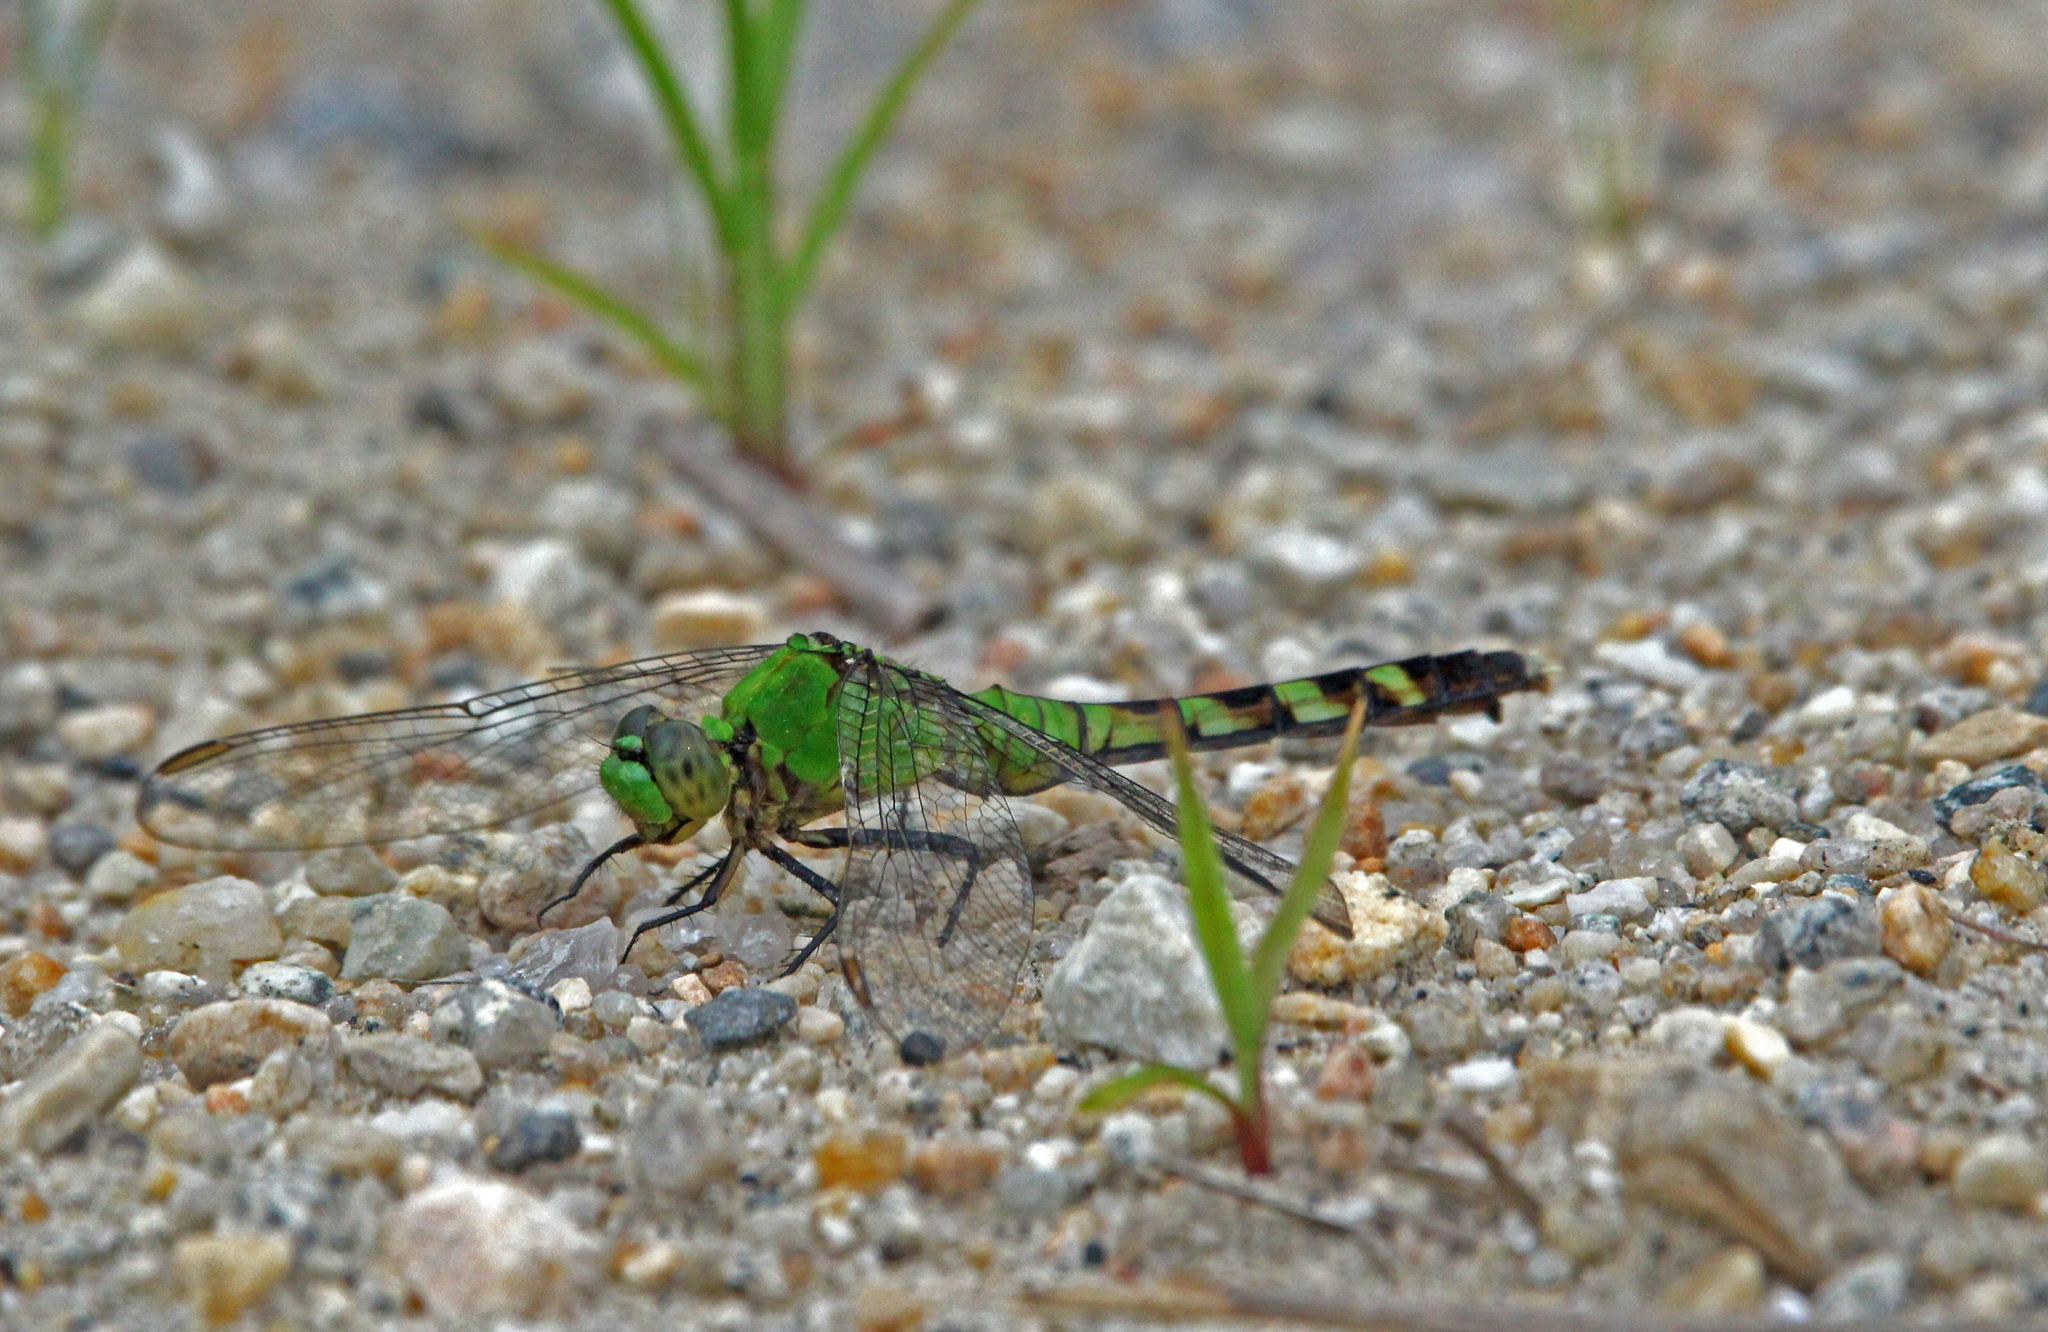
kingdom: Animalia
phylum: Arthropoda
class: Insecta
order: Odonata
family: Libellulidae
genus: Erythemis
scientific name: Erythemis simplicicollis
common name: Eastern pondhawk
